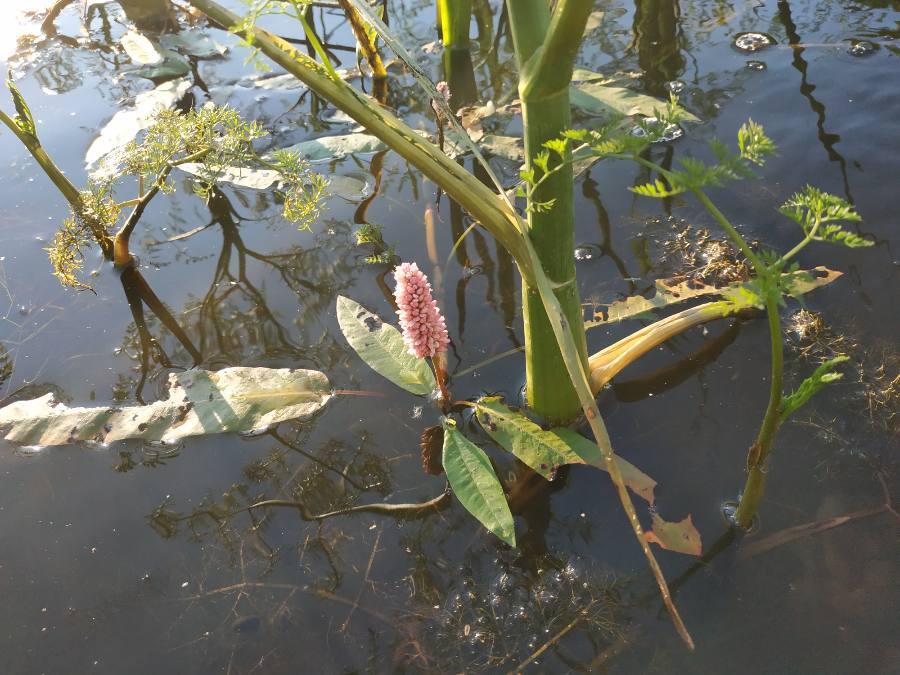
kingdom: Plantae
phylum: Tracheophyta
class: Magnoliopsida
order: Caryophyllales
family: Polygonaceae
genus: Persicaria
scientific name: Persicaria amphibia
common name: Amphibious bistort
